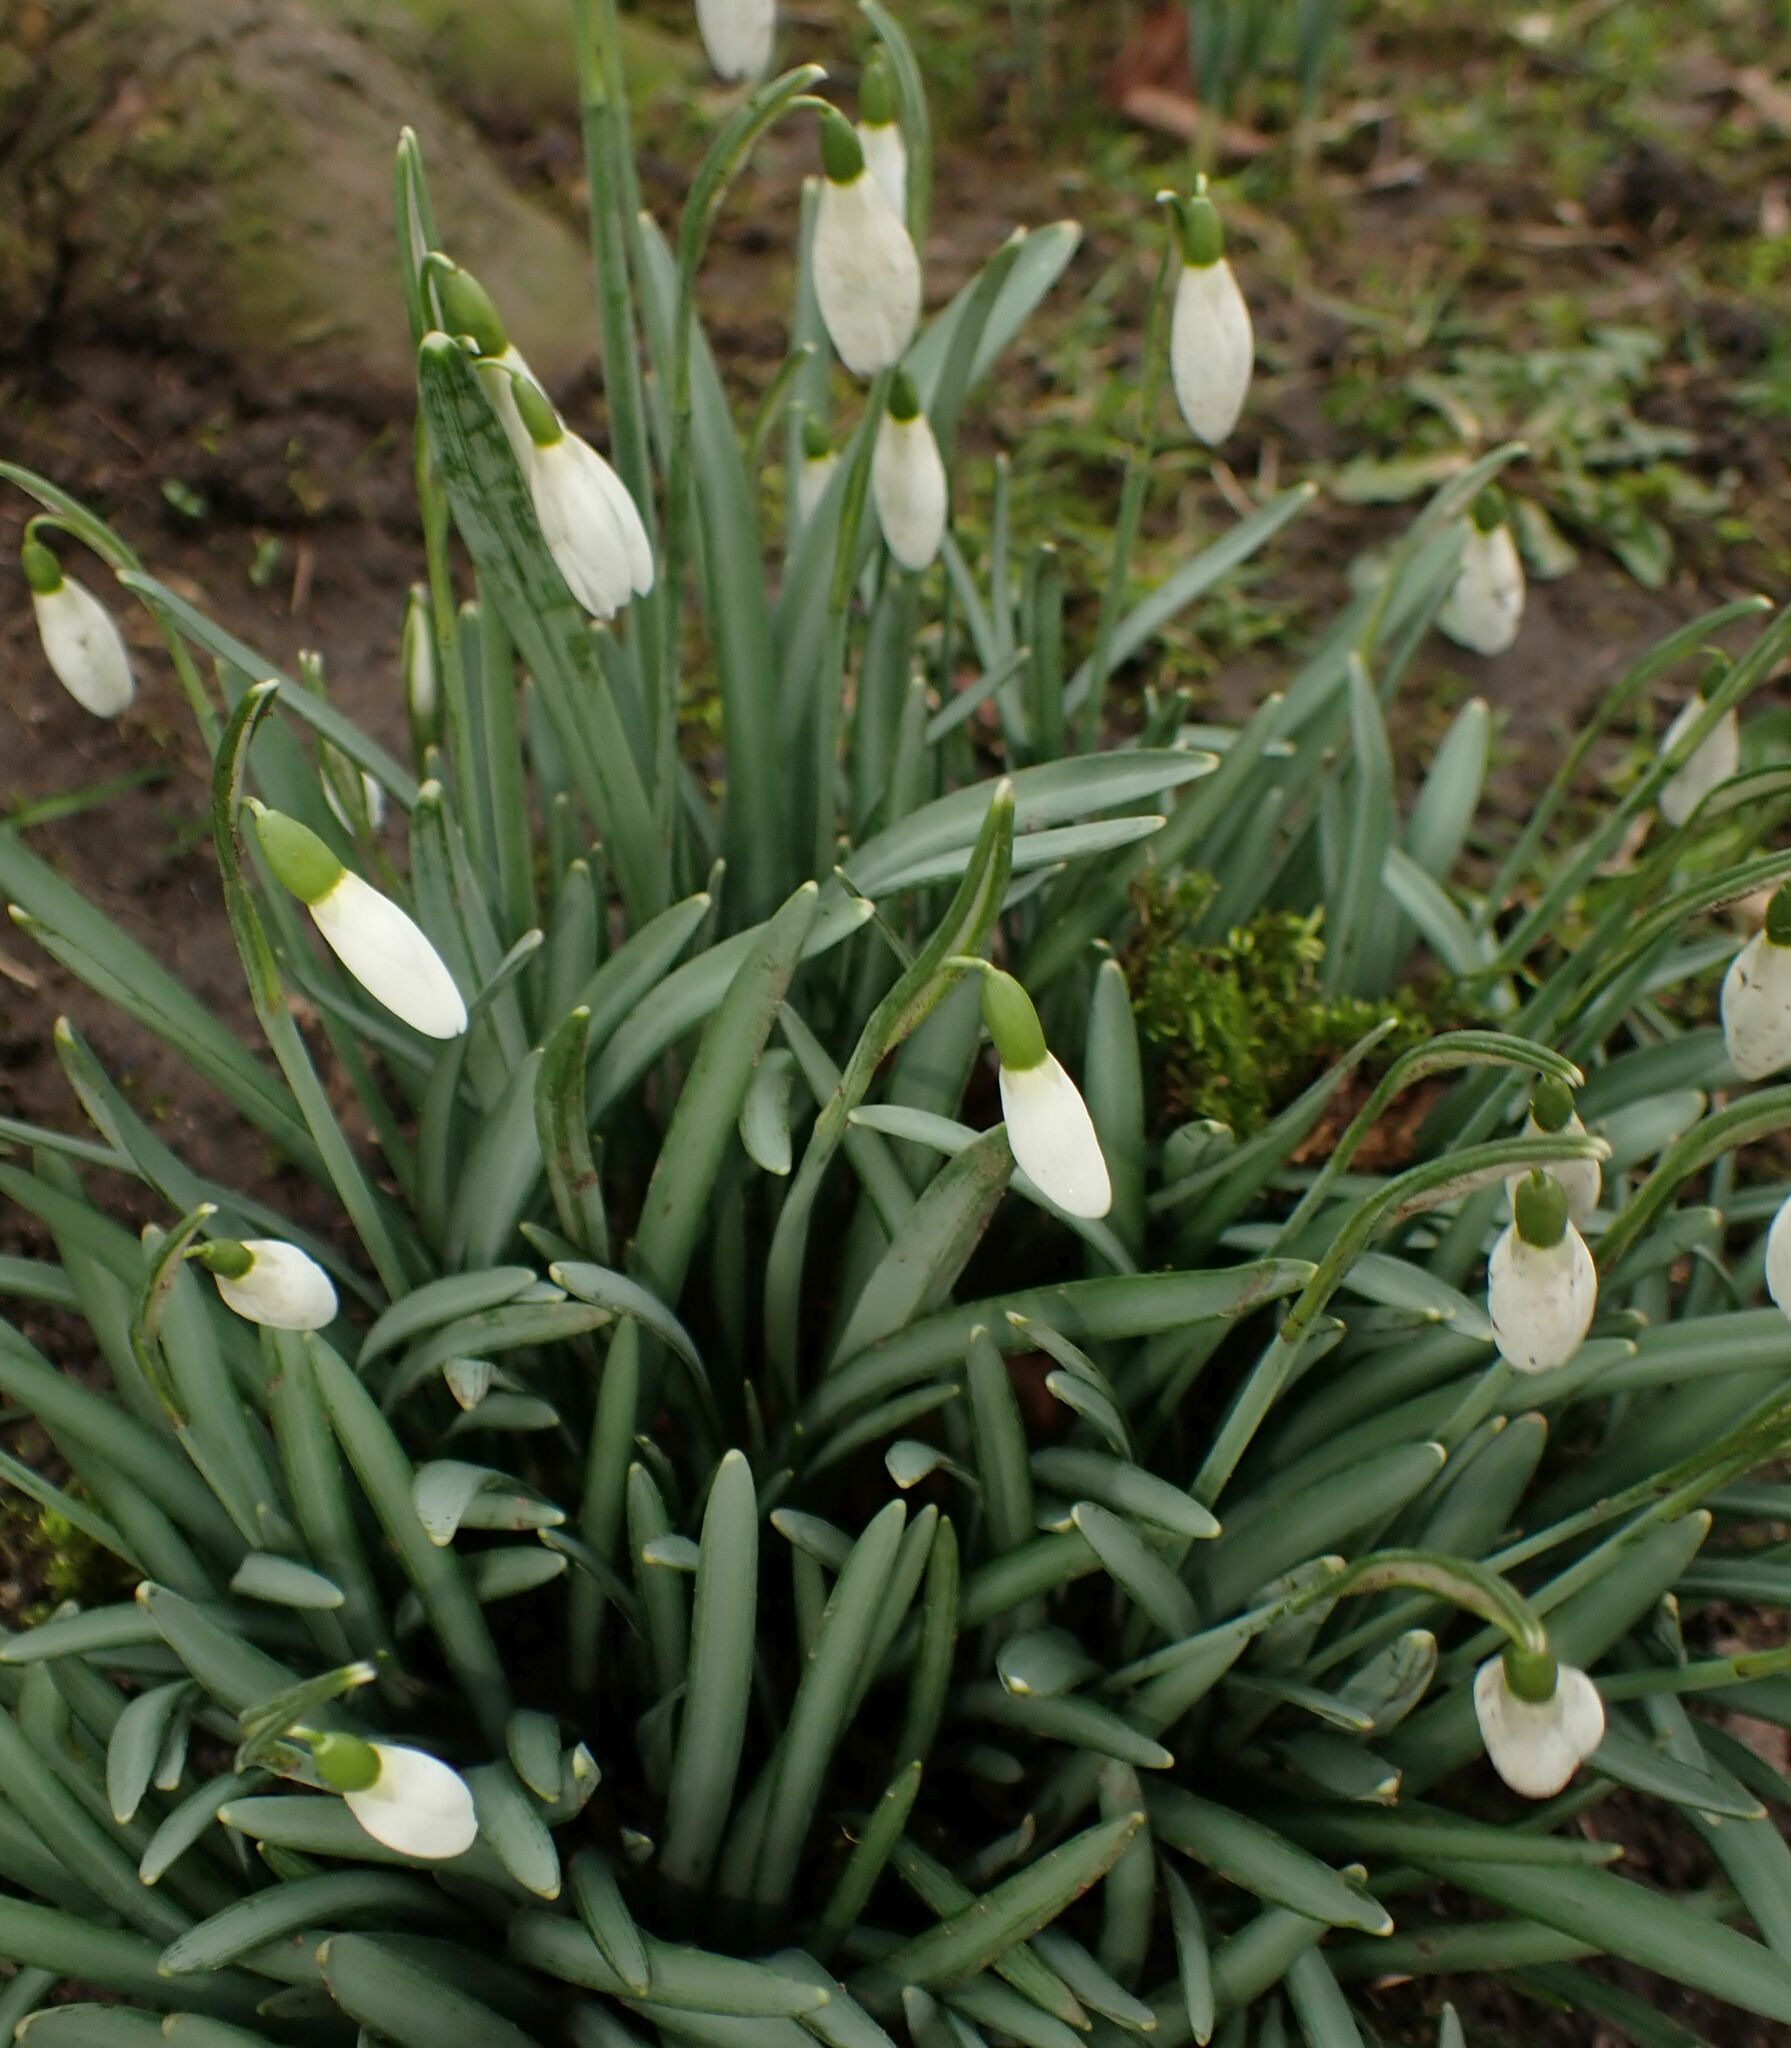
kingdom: Plantae
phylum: Tracheophyta
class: Liliopsida
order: Asparagales
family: Amaryllidaceae
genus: Galanthus
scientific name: Galanthus nivalis
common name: Snowdrop
